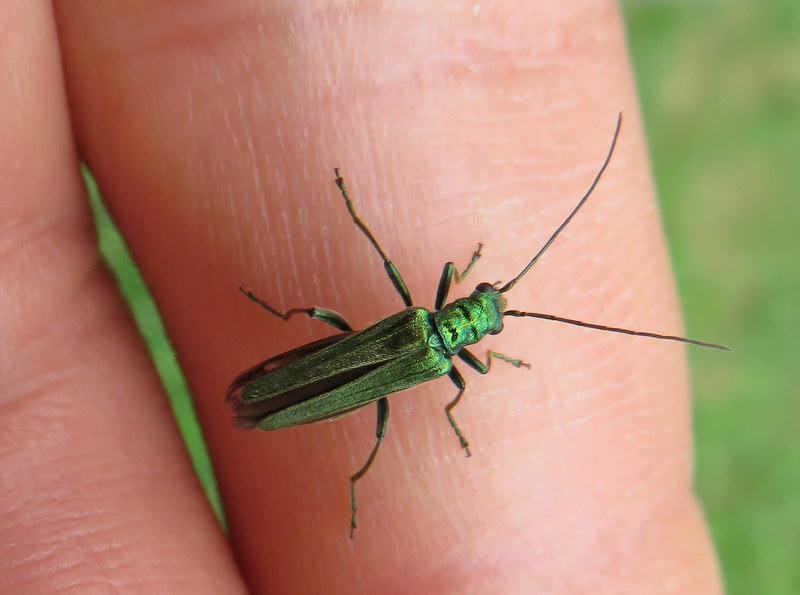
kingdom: Animalia
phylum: Arthropoda
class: Insecta
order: Coleoptera
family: Oedemeridae
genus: Oedemera
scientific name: Oedemera nobilis
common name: Swollen-thighed beetle
